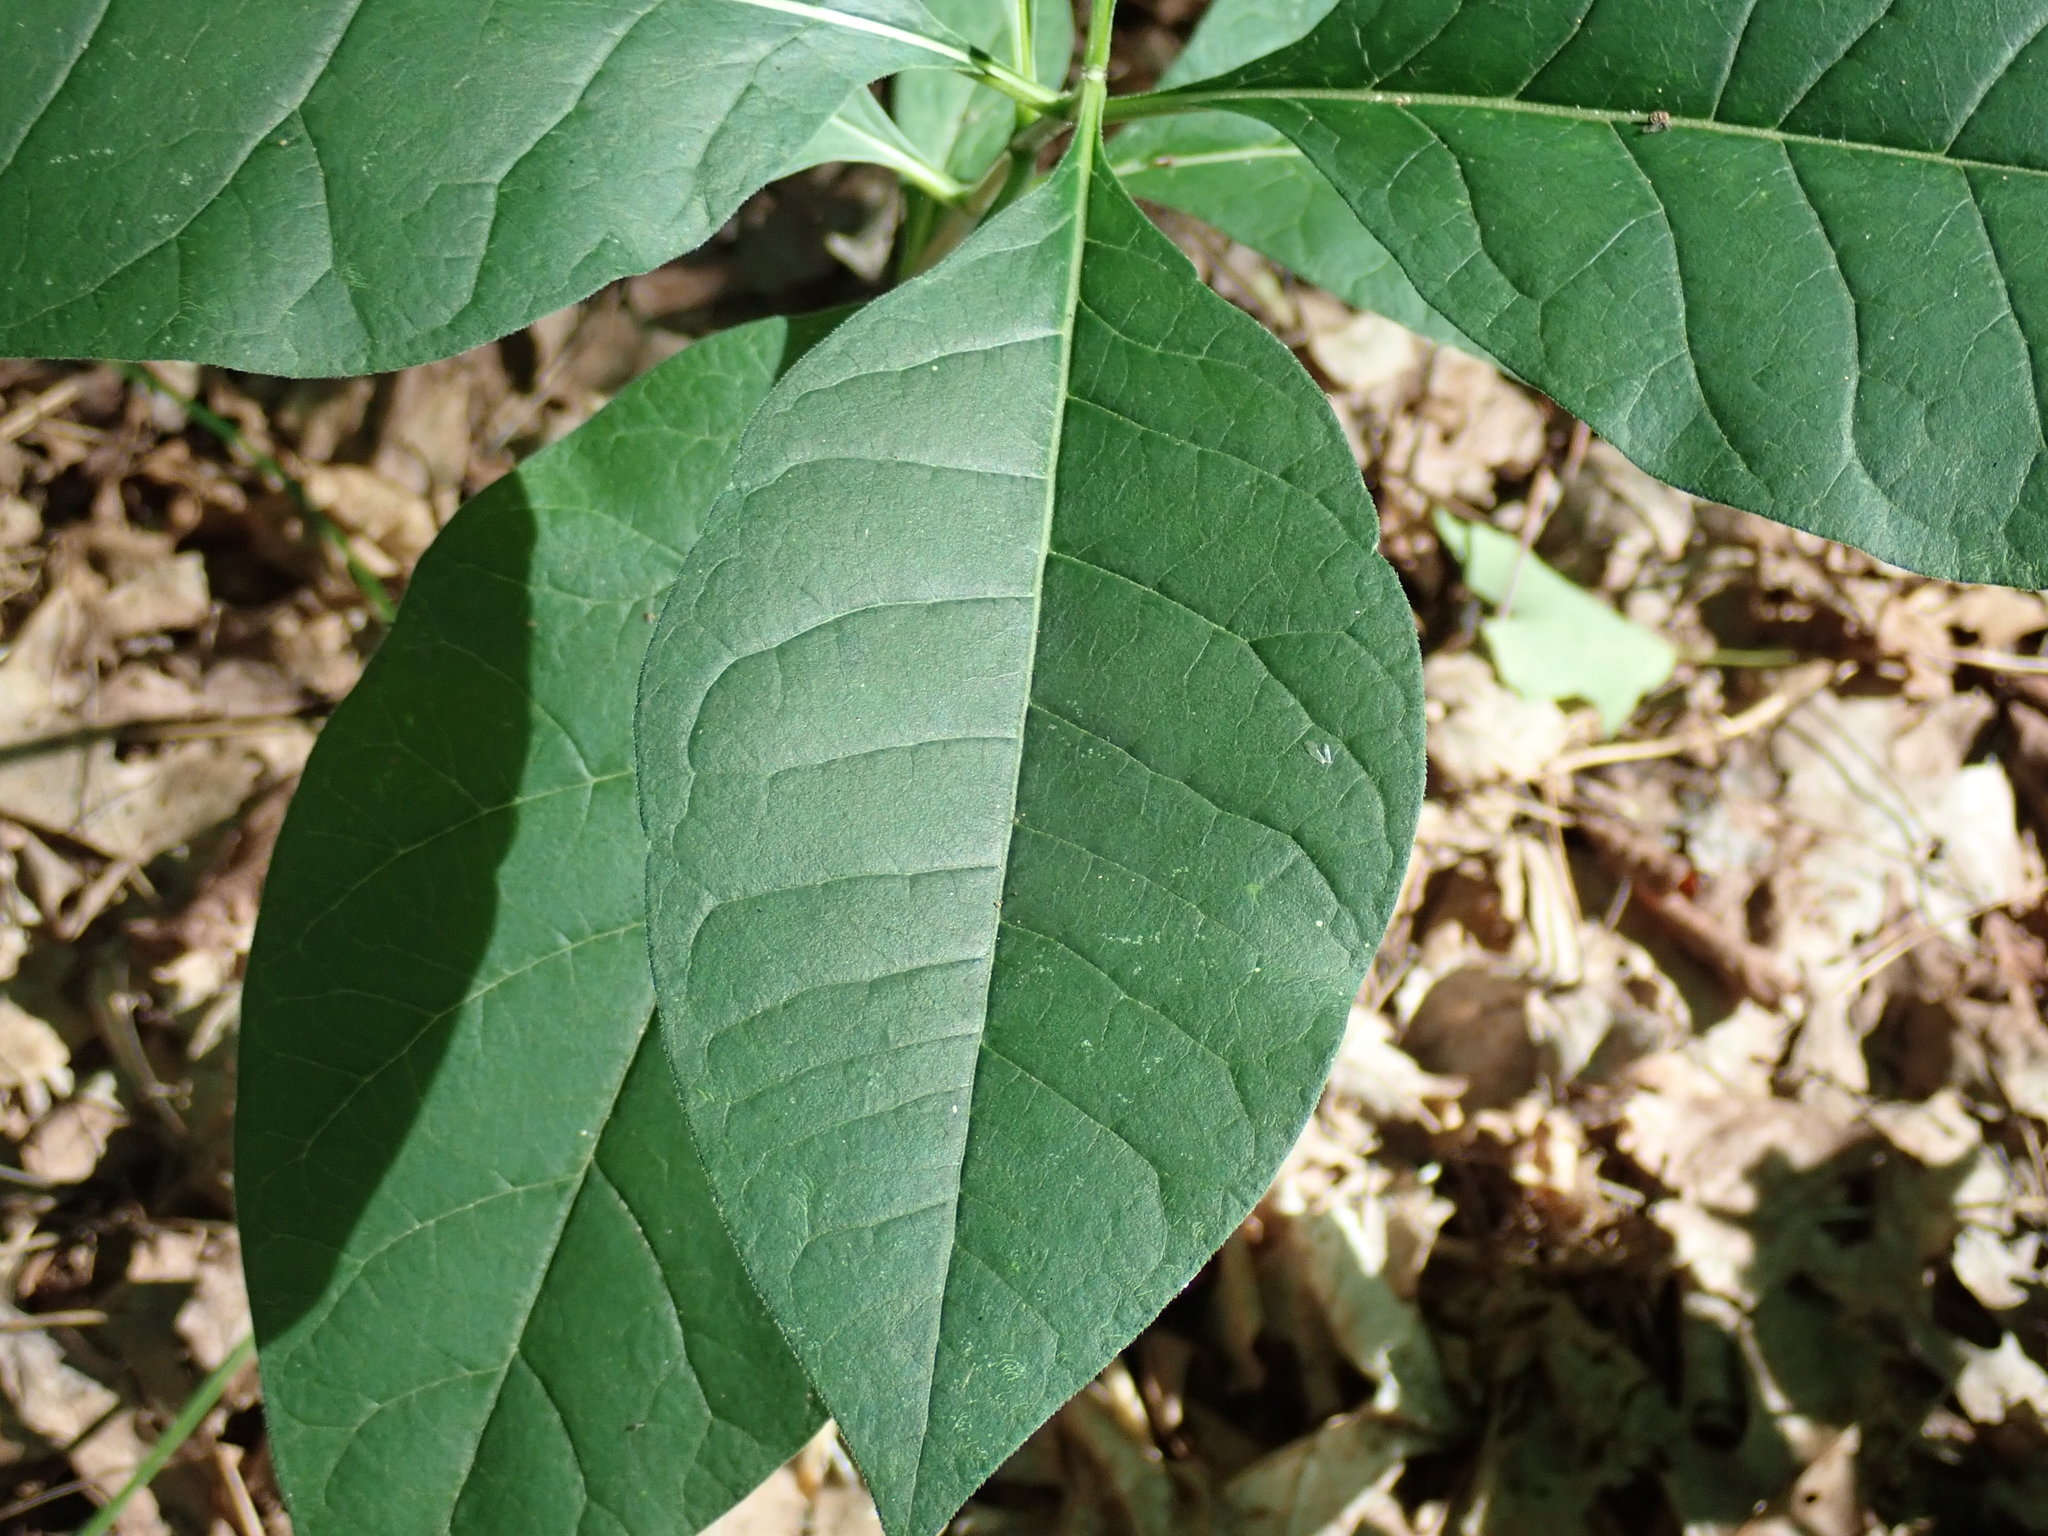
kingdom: Plantae
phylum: Tracheophyta
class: Magnoliopsida
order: Gentianales
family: Apocynaceae
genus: Asclepias
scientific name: Asclepias exaltata
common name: Poke milkweed
